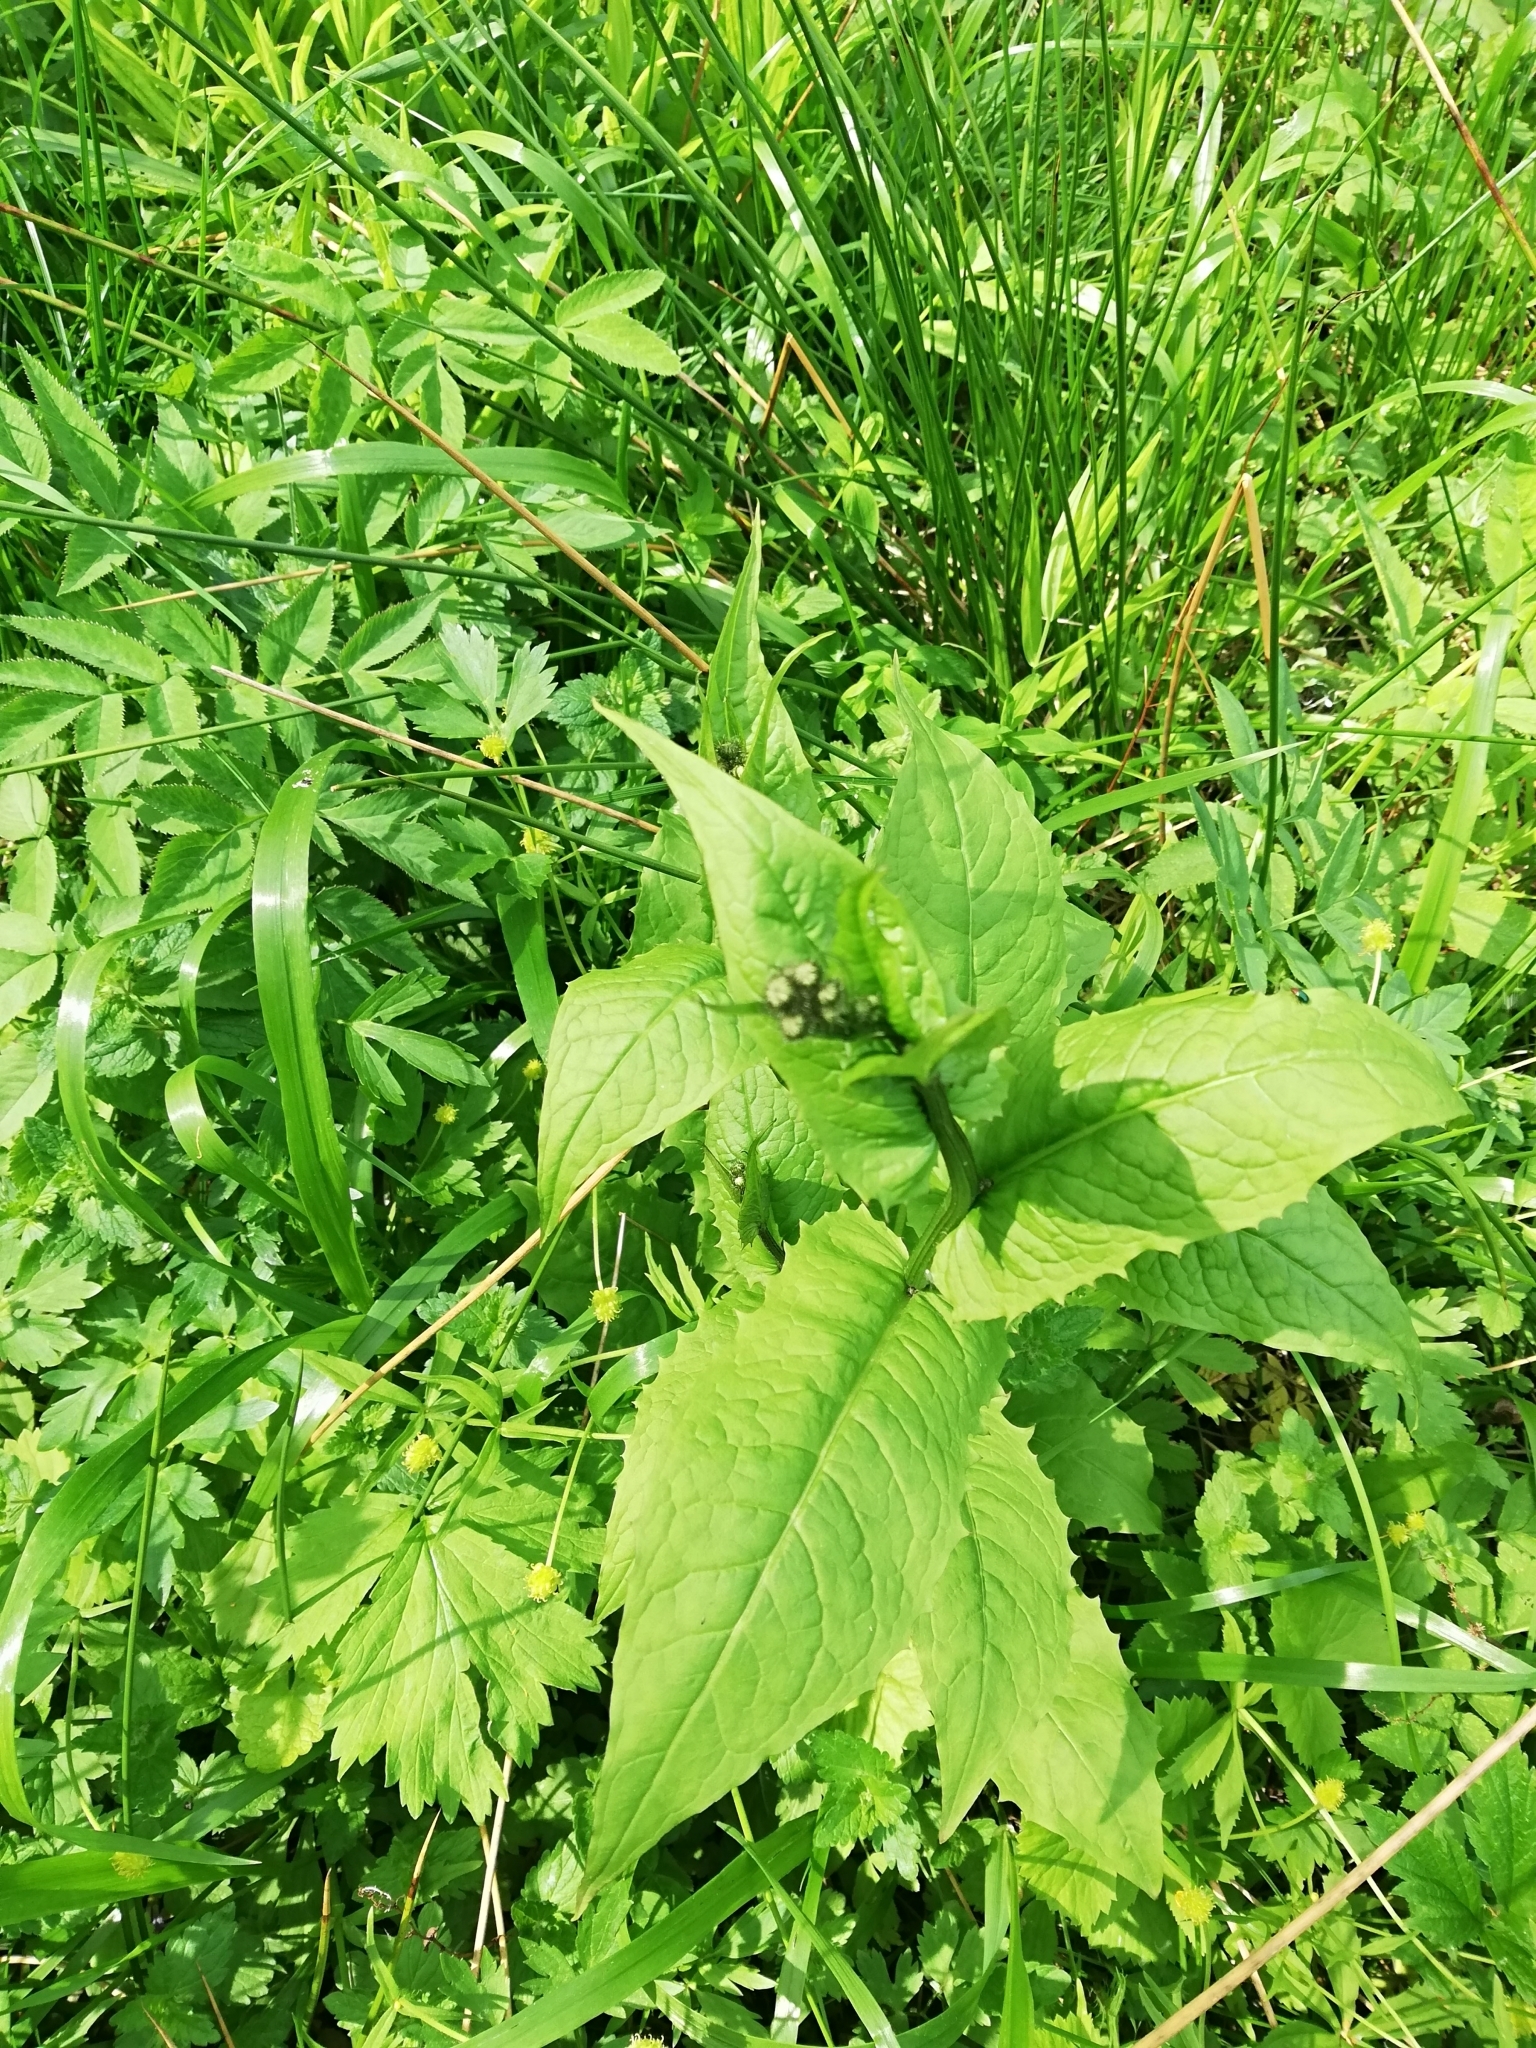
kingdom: Plantae
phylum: Tracheophyta
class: Magnoliopsida
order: Asterales
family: Asteraceae
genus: Crepis
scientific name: Crepis paludosa
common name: Marsh hawk's-beard
